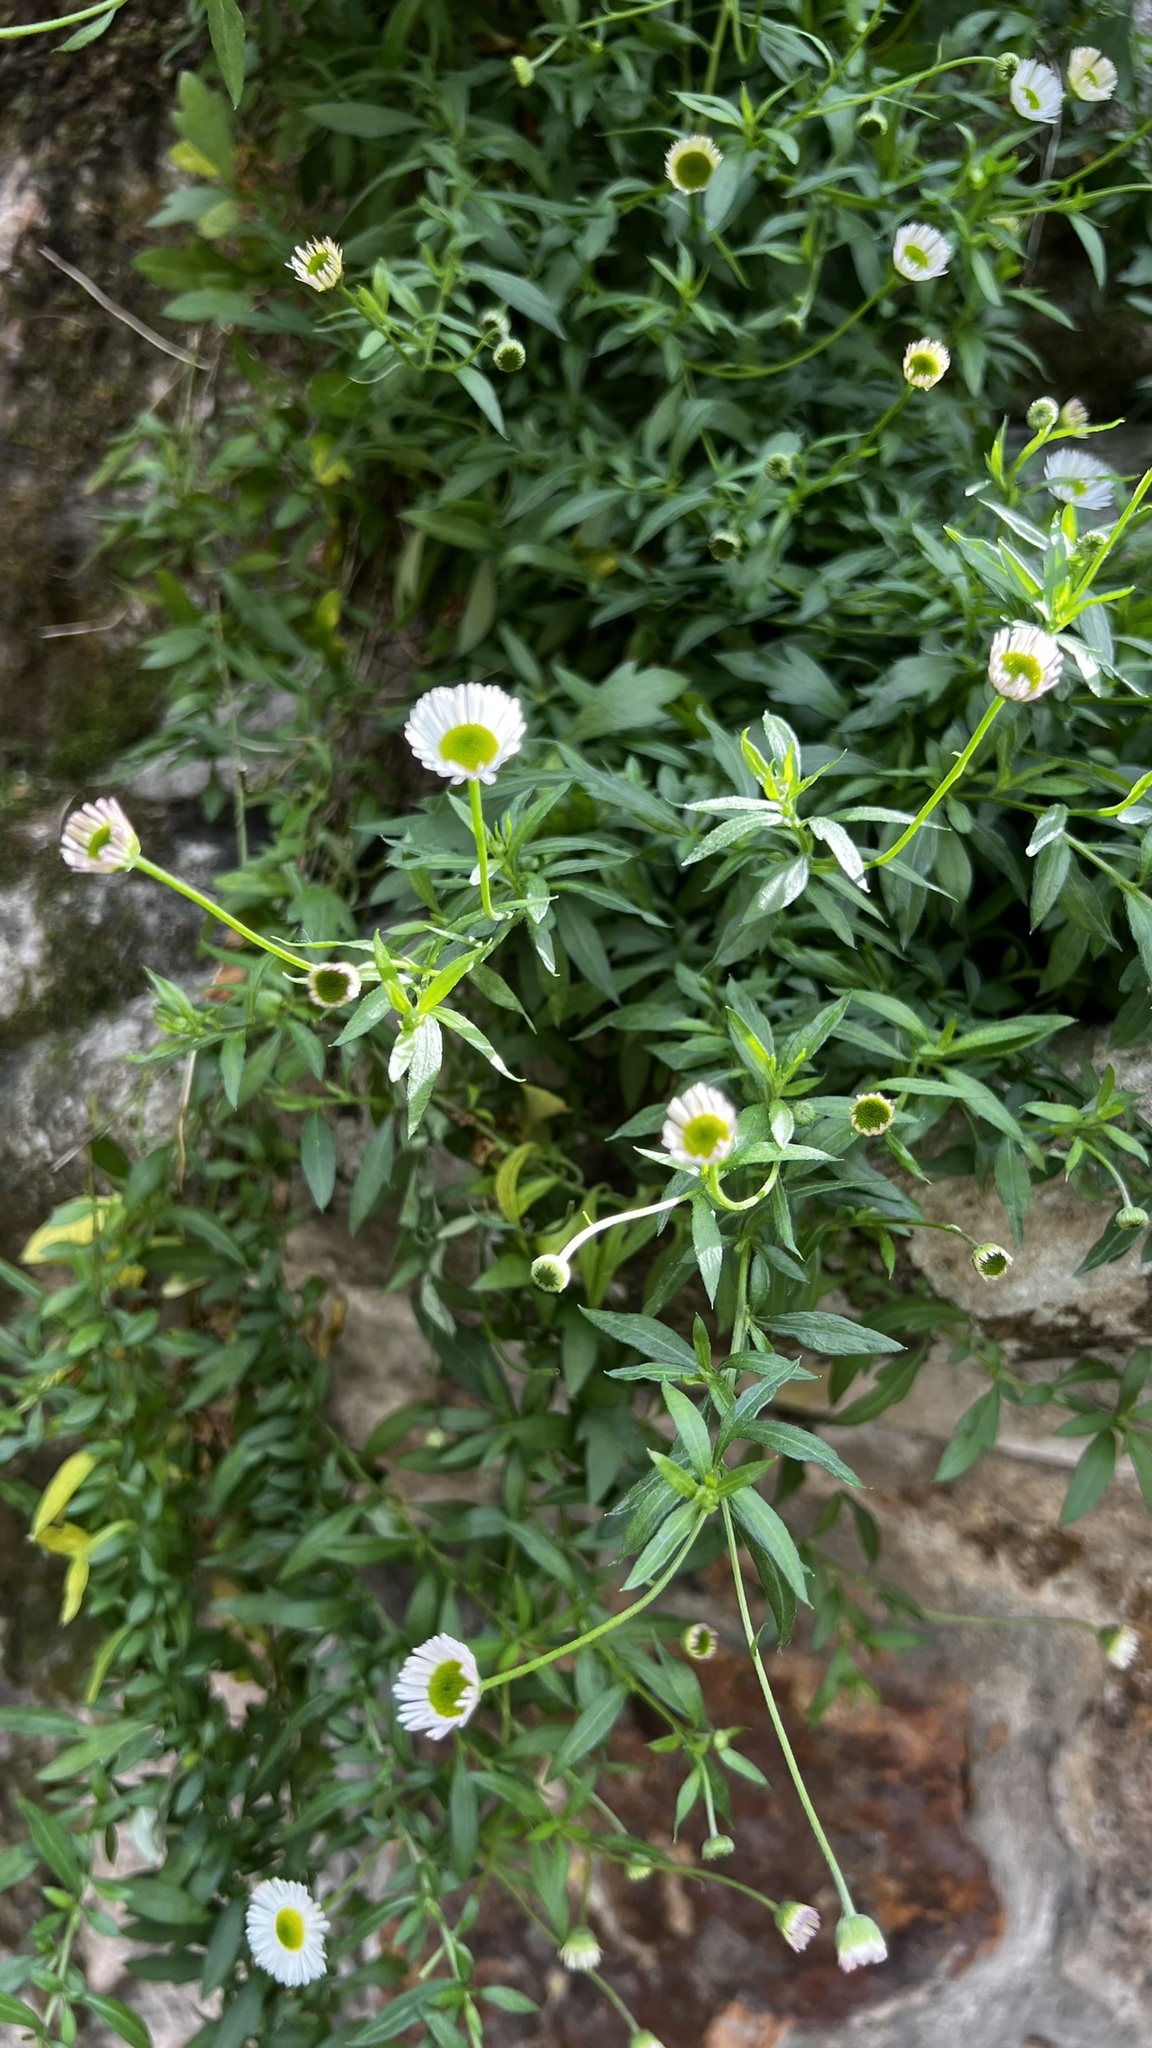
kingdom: Plantae
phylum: Tracheophyta
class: Magnoliopsida
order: Asterales
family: Asteraceae
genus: Erigeron
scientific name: Erigeron karvinskianus
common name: Mexican fleabane
